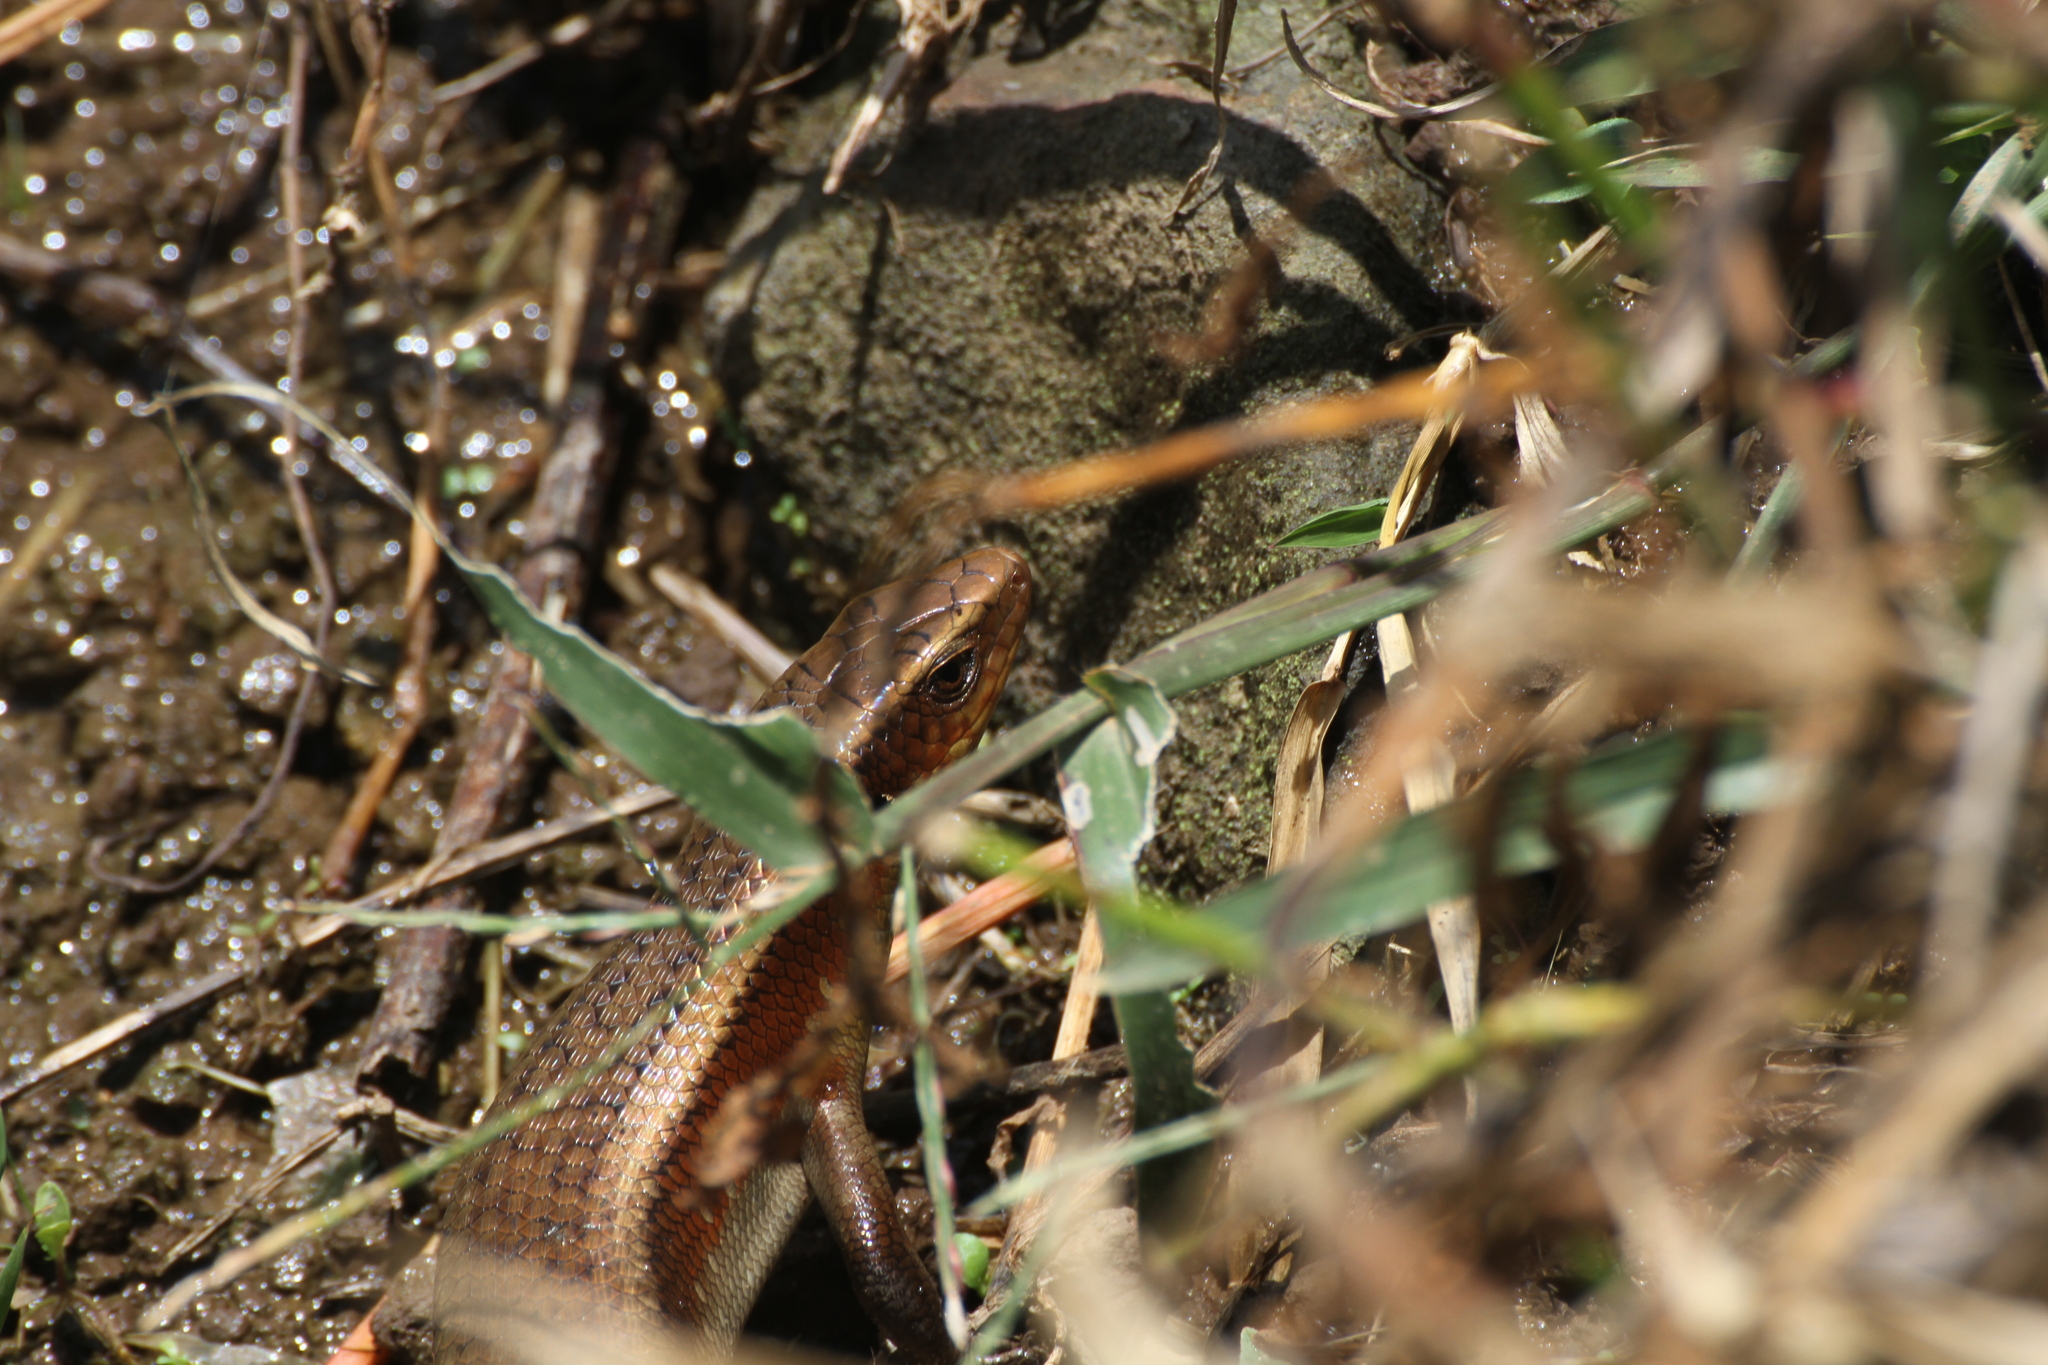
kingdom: Animalia
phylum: Chordata
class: Squamata
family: Scincidae
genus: Eutropis
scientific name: Eutropis multifasciata
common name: Common mabuya
